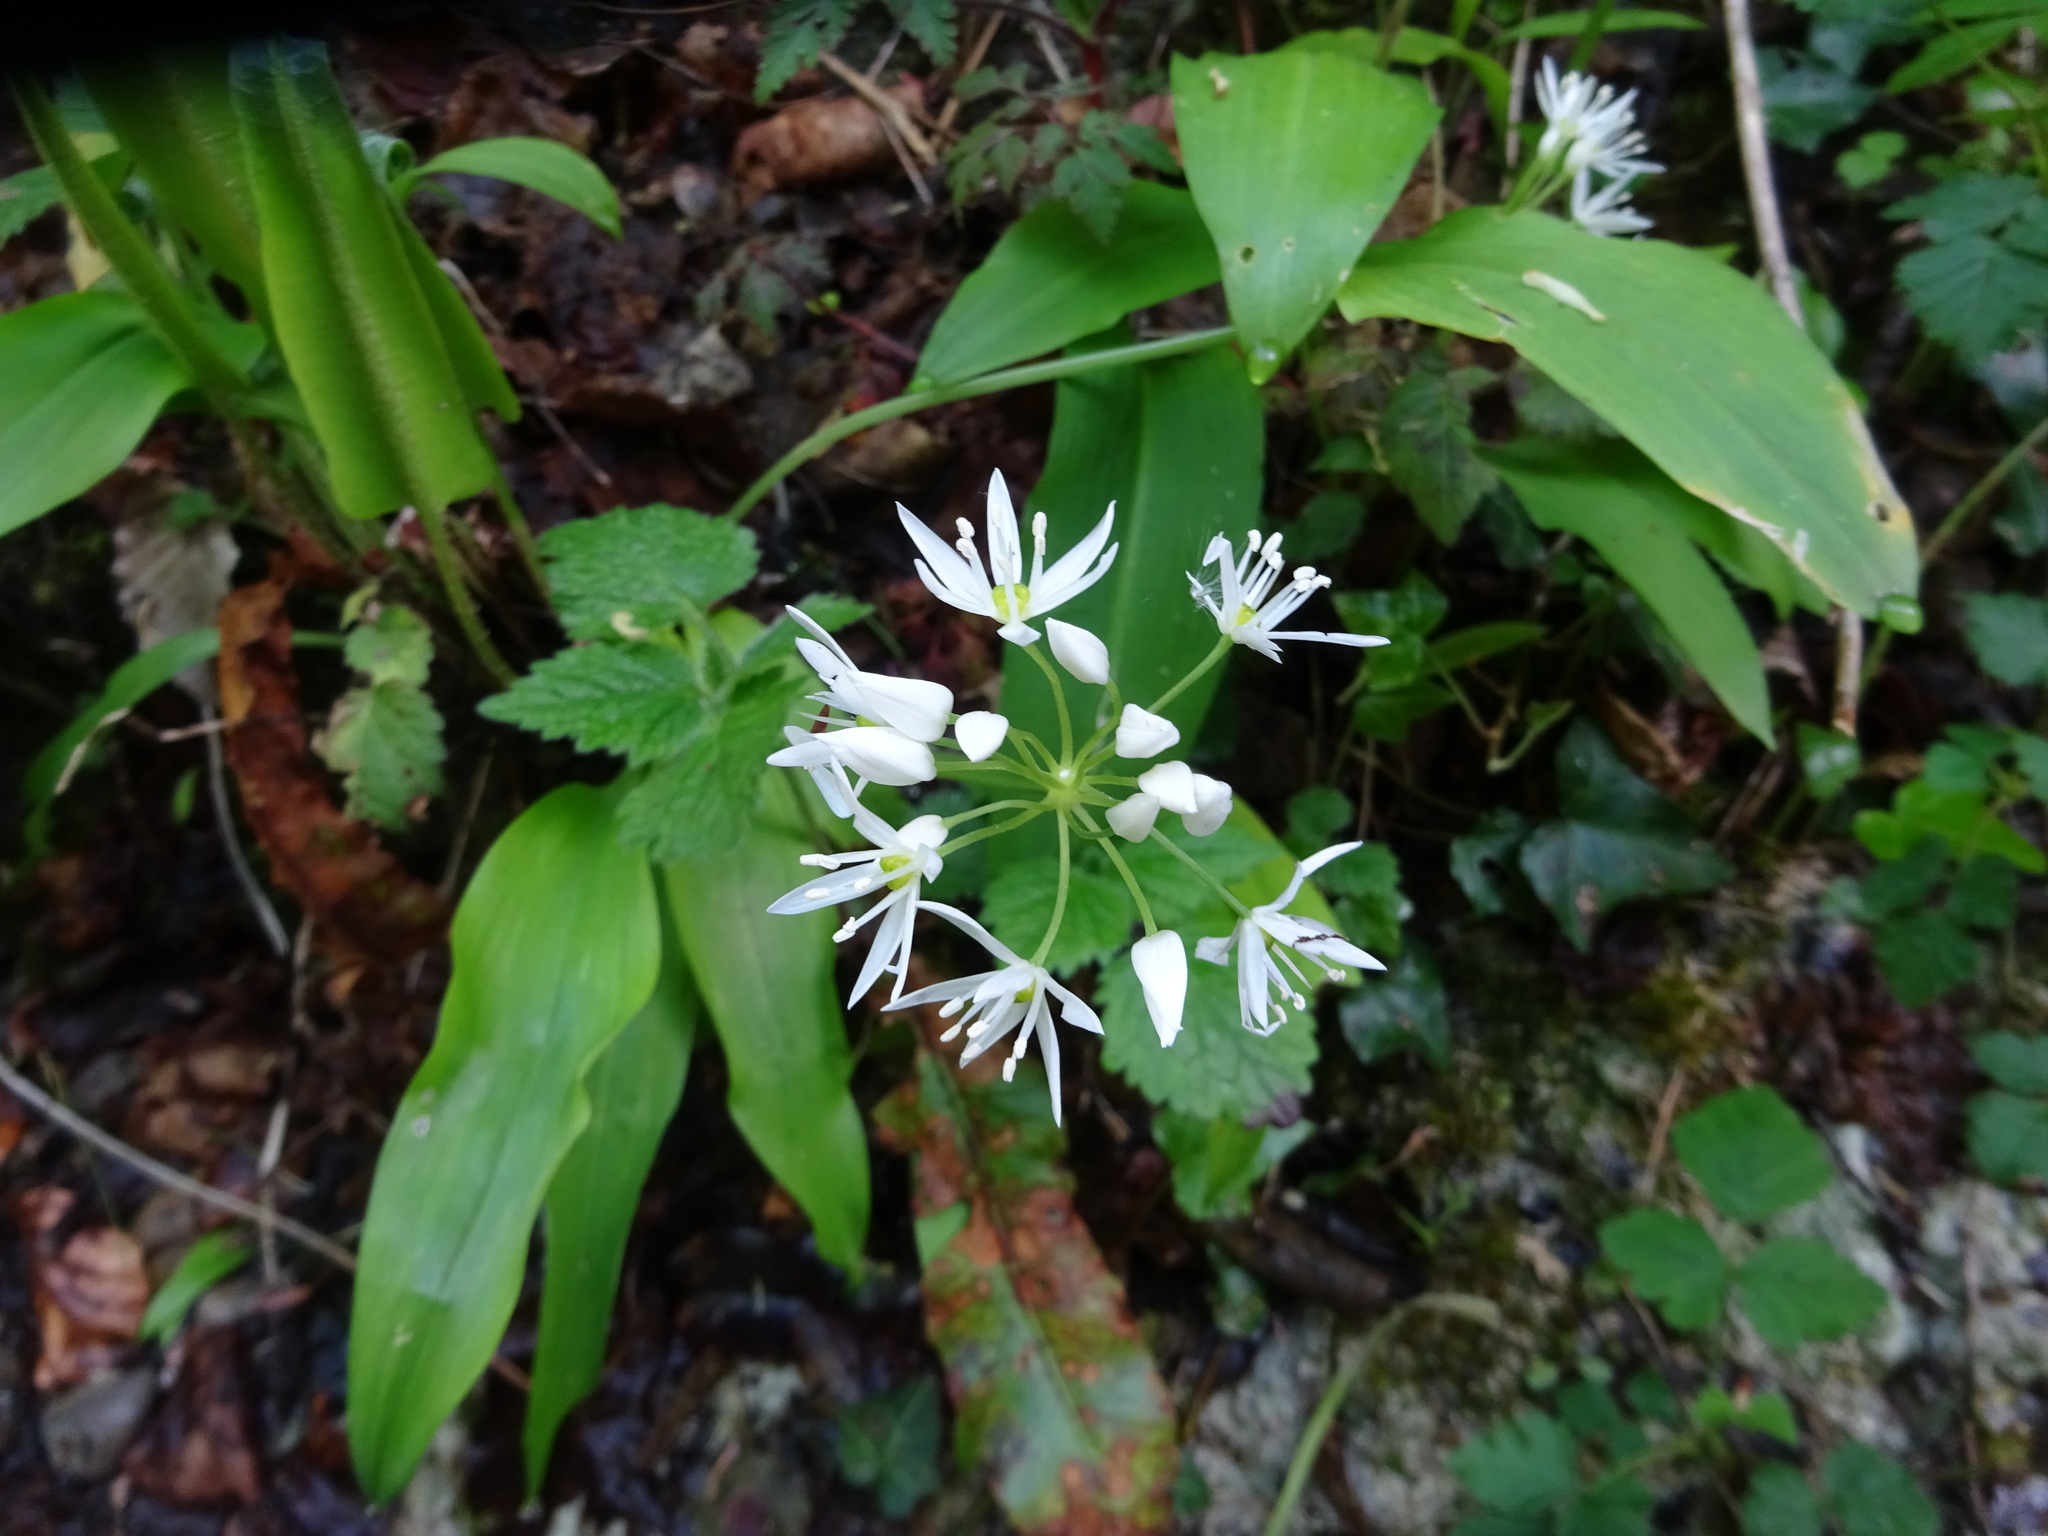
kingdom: Plantae
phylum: Tracheophyta
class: Liliopsida
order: Asparagales
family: Amaryllidaceae
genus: Allium
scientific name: Allium ursinum
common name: Ramsons
